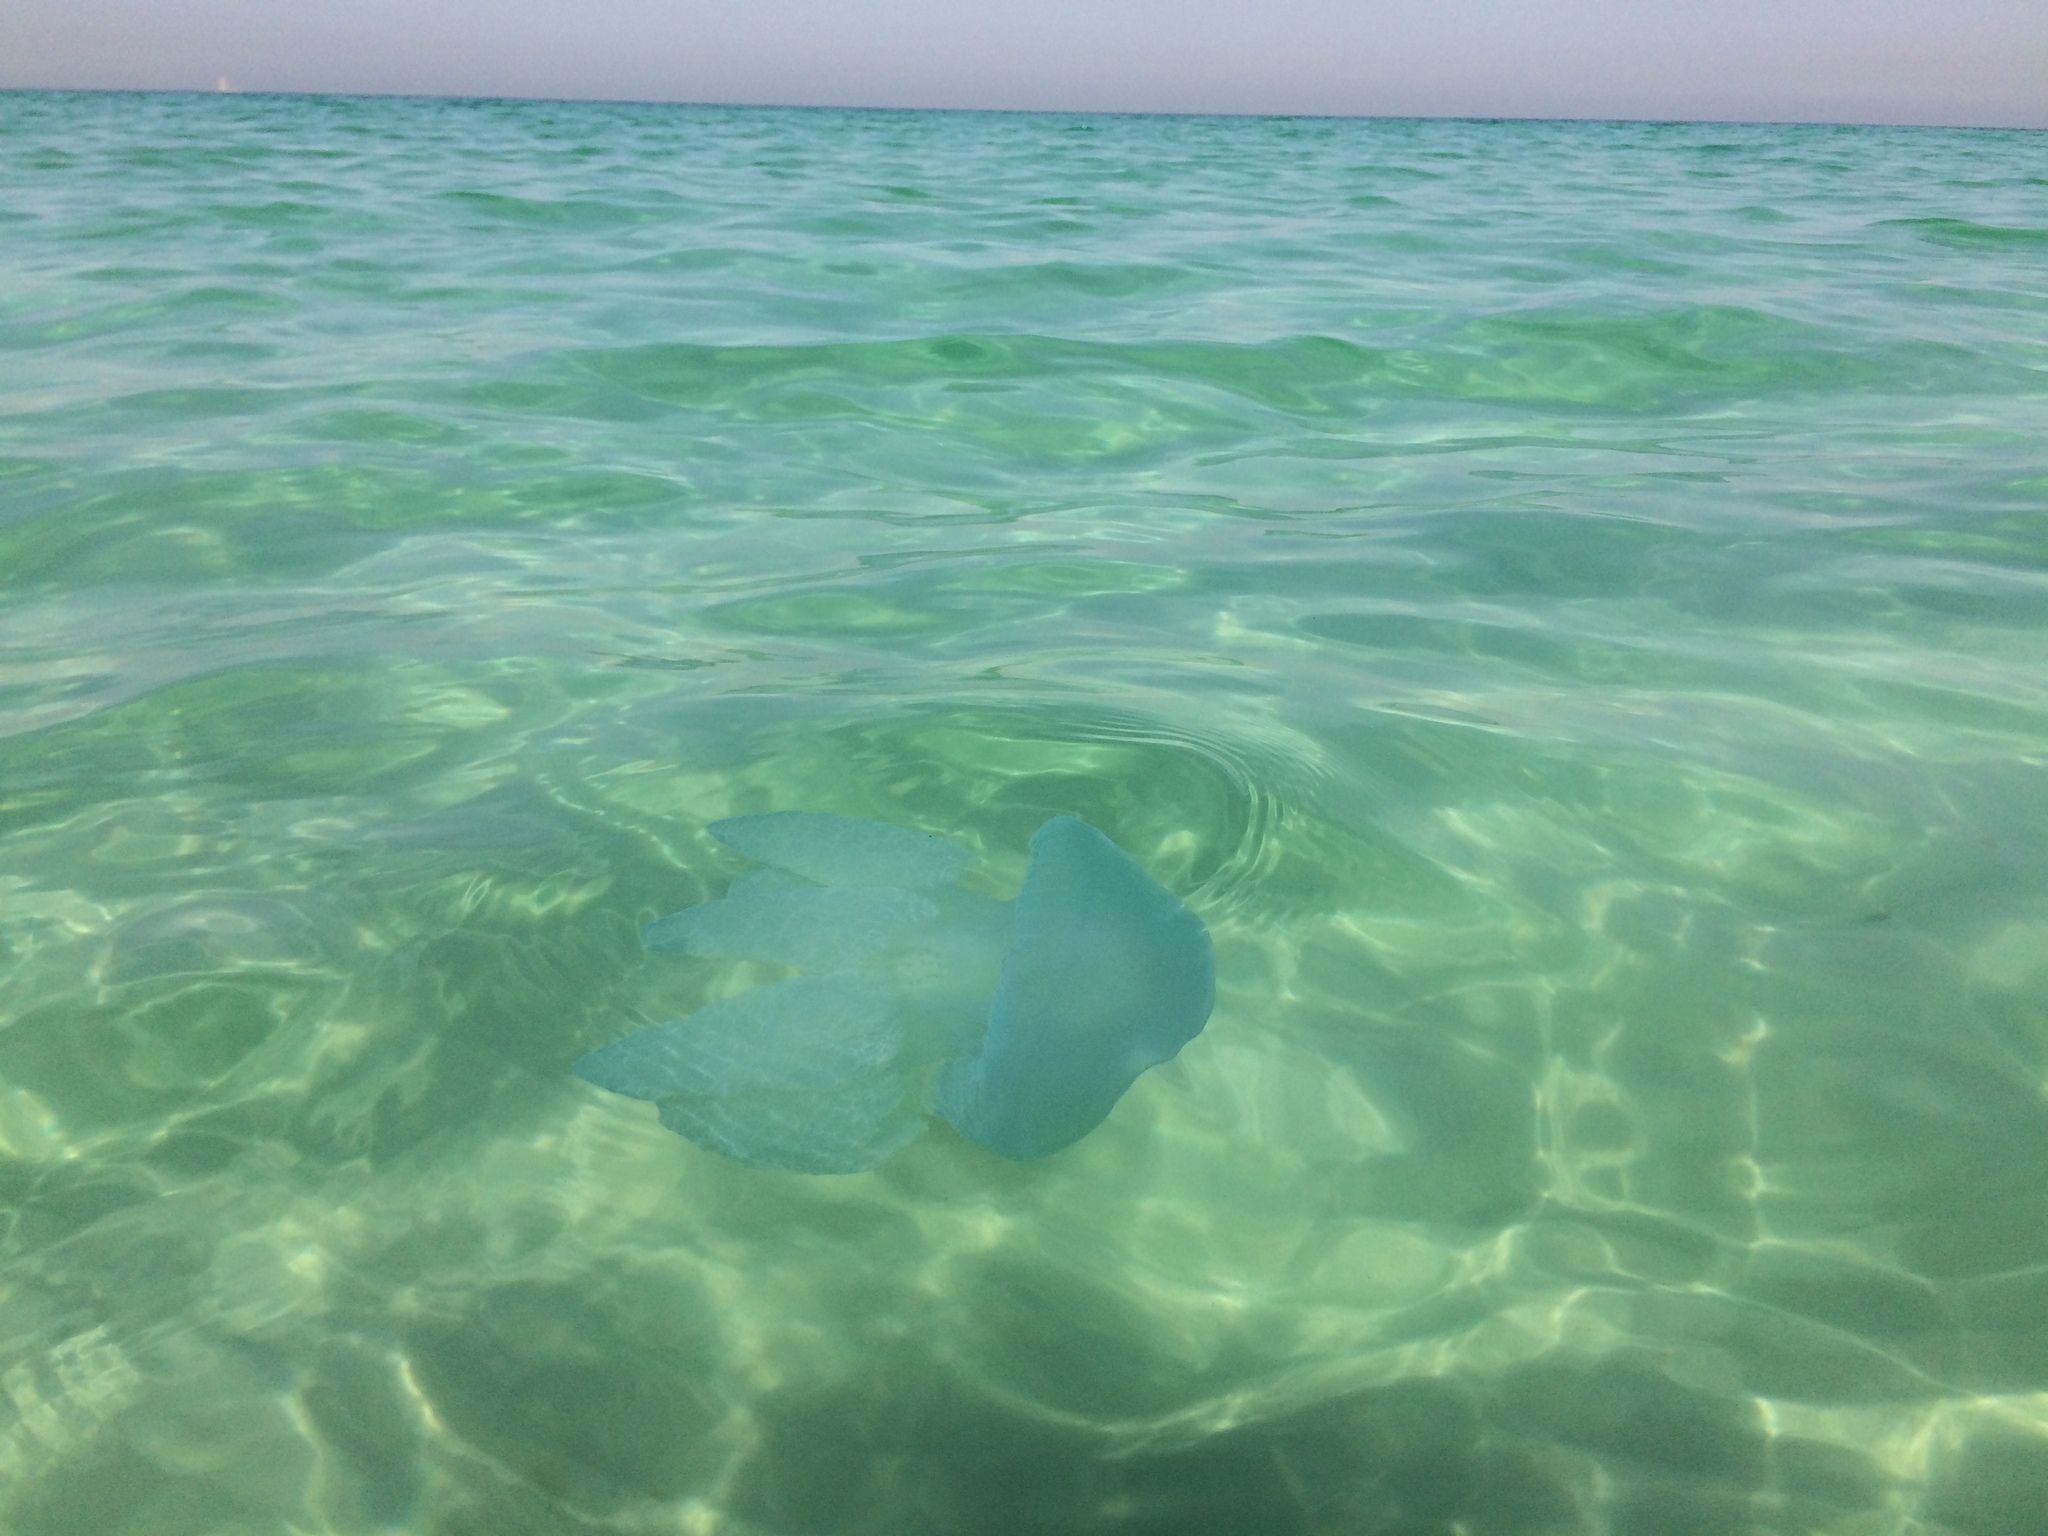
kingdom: Animalia
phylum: Cnidaria
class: Scyphozoa
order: Rhizostomeae
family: Catostylidae
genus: Catostylus
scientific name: Catostylus perezi
